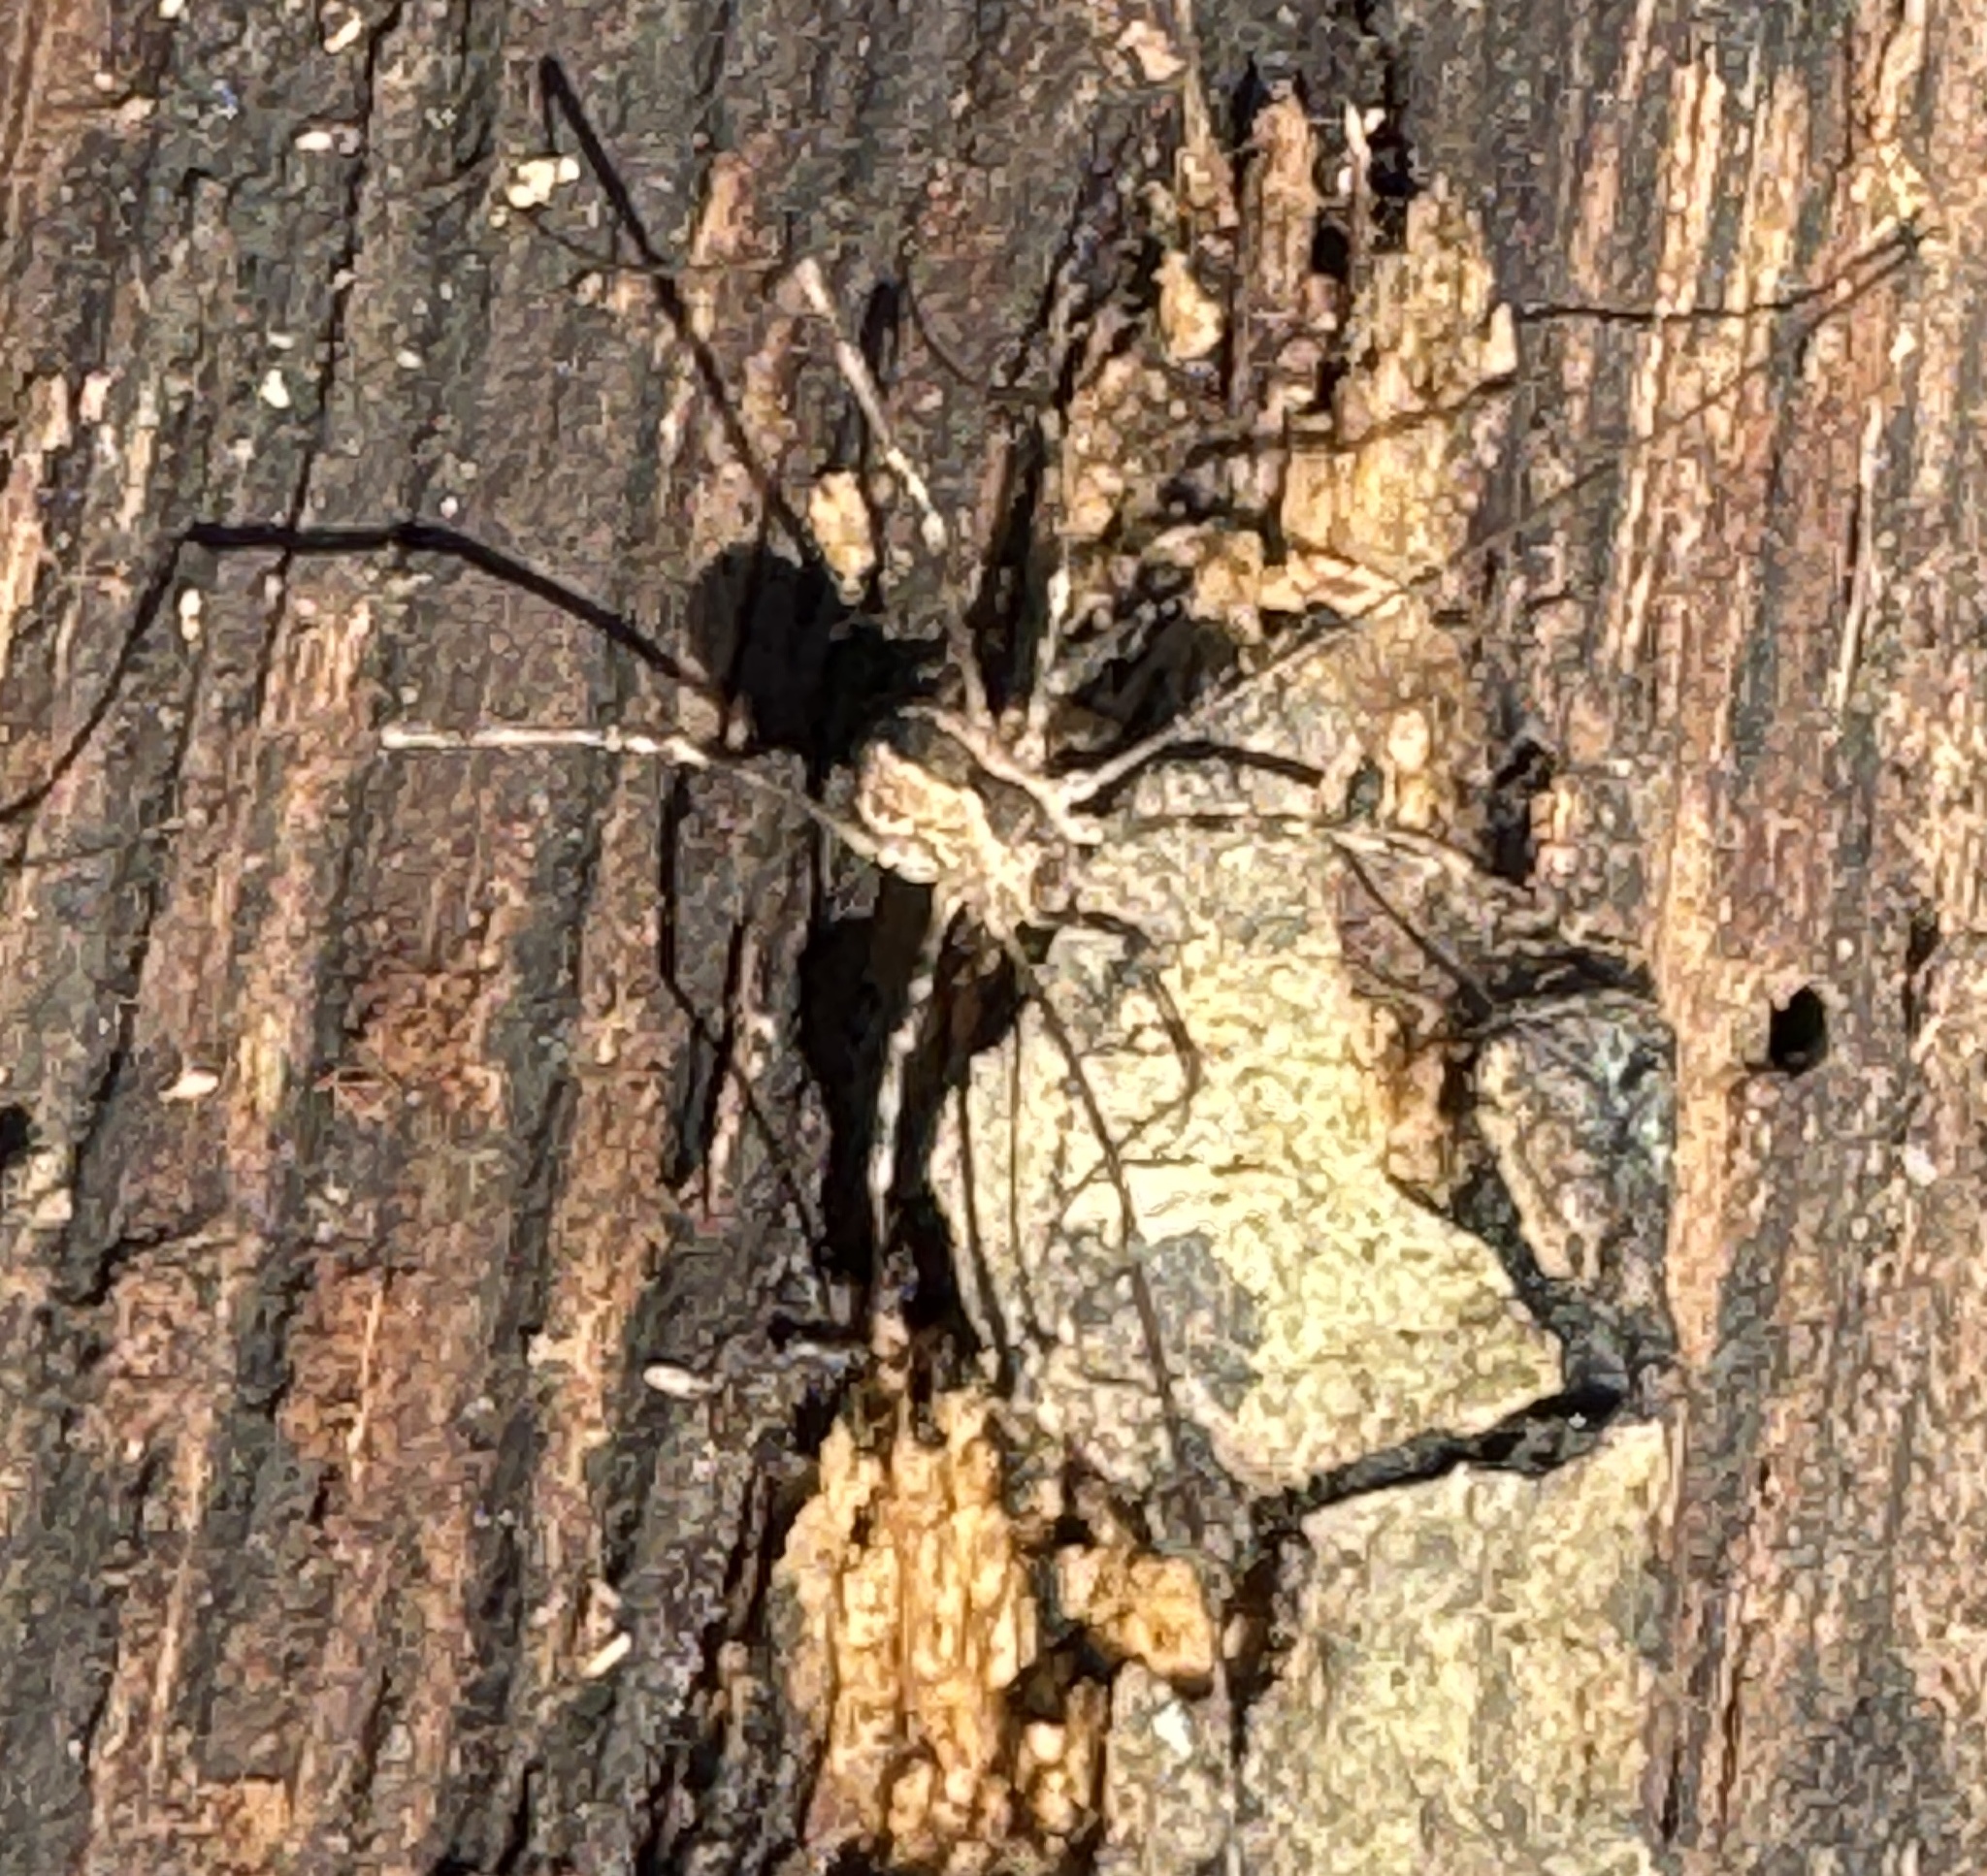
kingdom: Animalia
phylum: Arthropoda
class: Arachnida
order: Opiliones
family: Sclerosomatidae
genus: Leiobunum
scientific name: Leiobunum flavum
